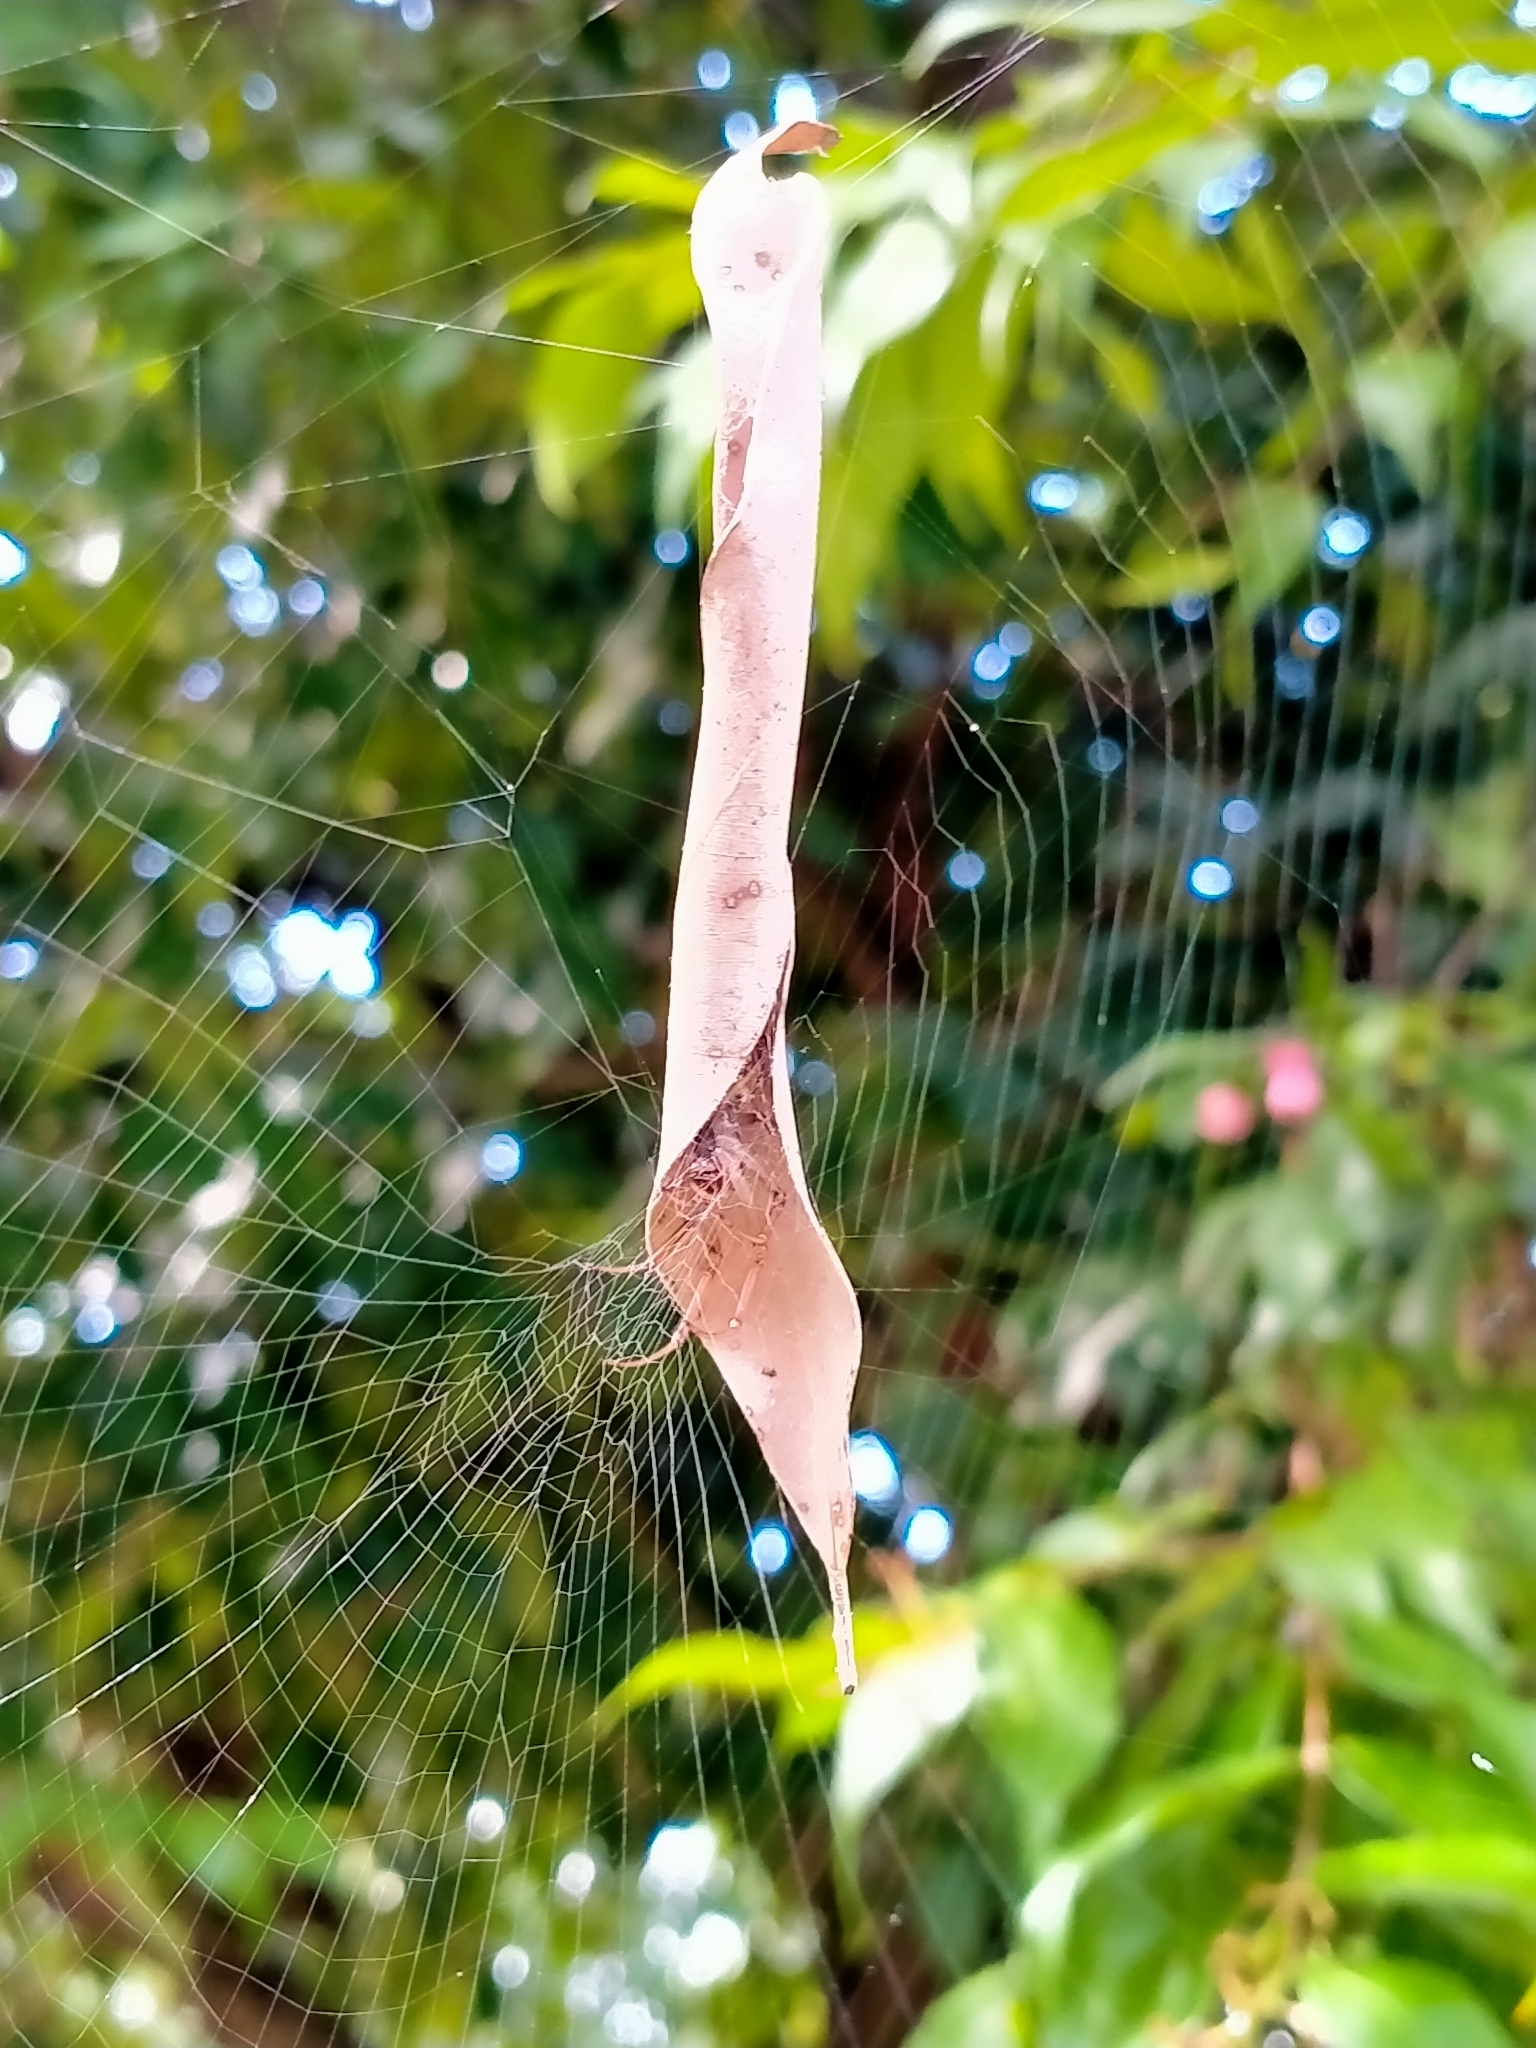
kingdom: Animalia
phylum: Arthropoda
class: Arachnida
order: Araneae
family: Araneidae
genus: Phonognatha
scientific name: Phonognatha graeffei
